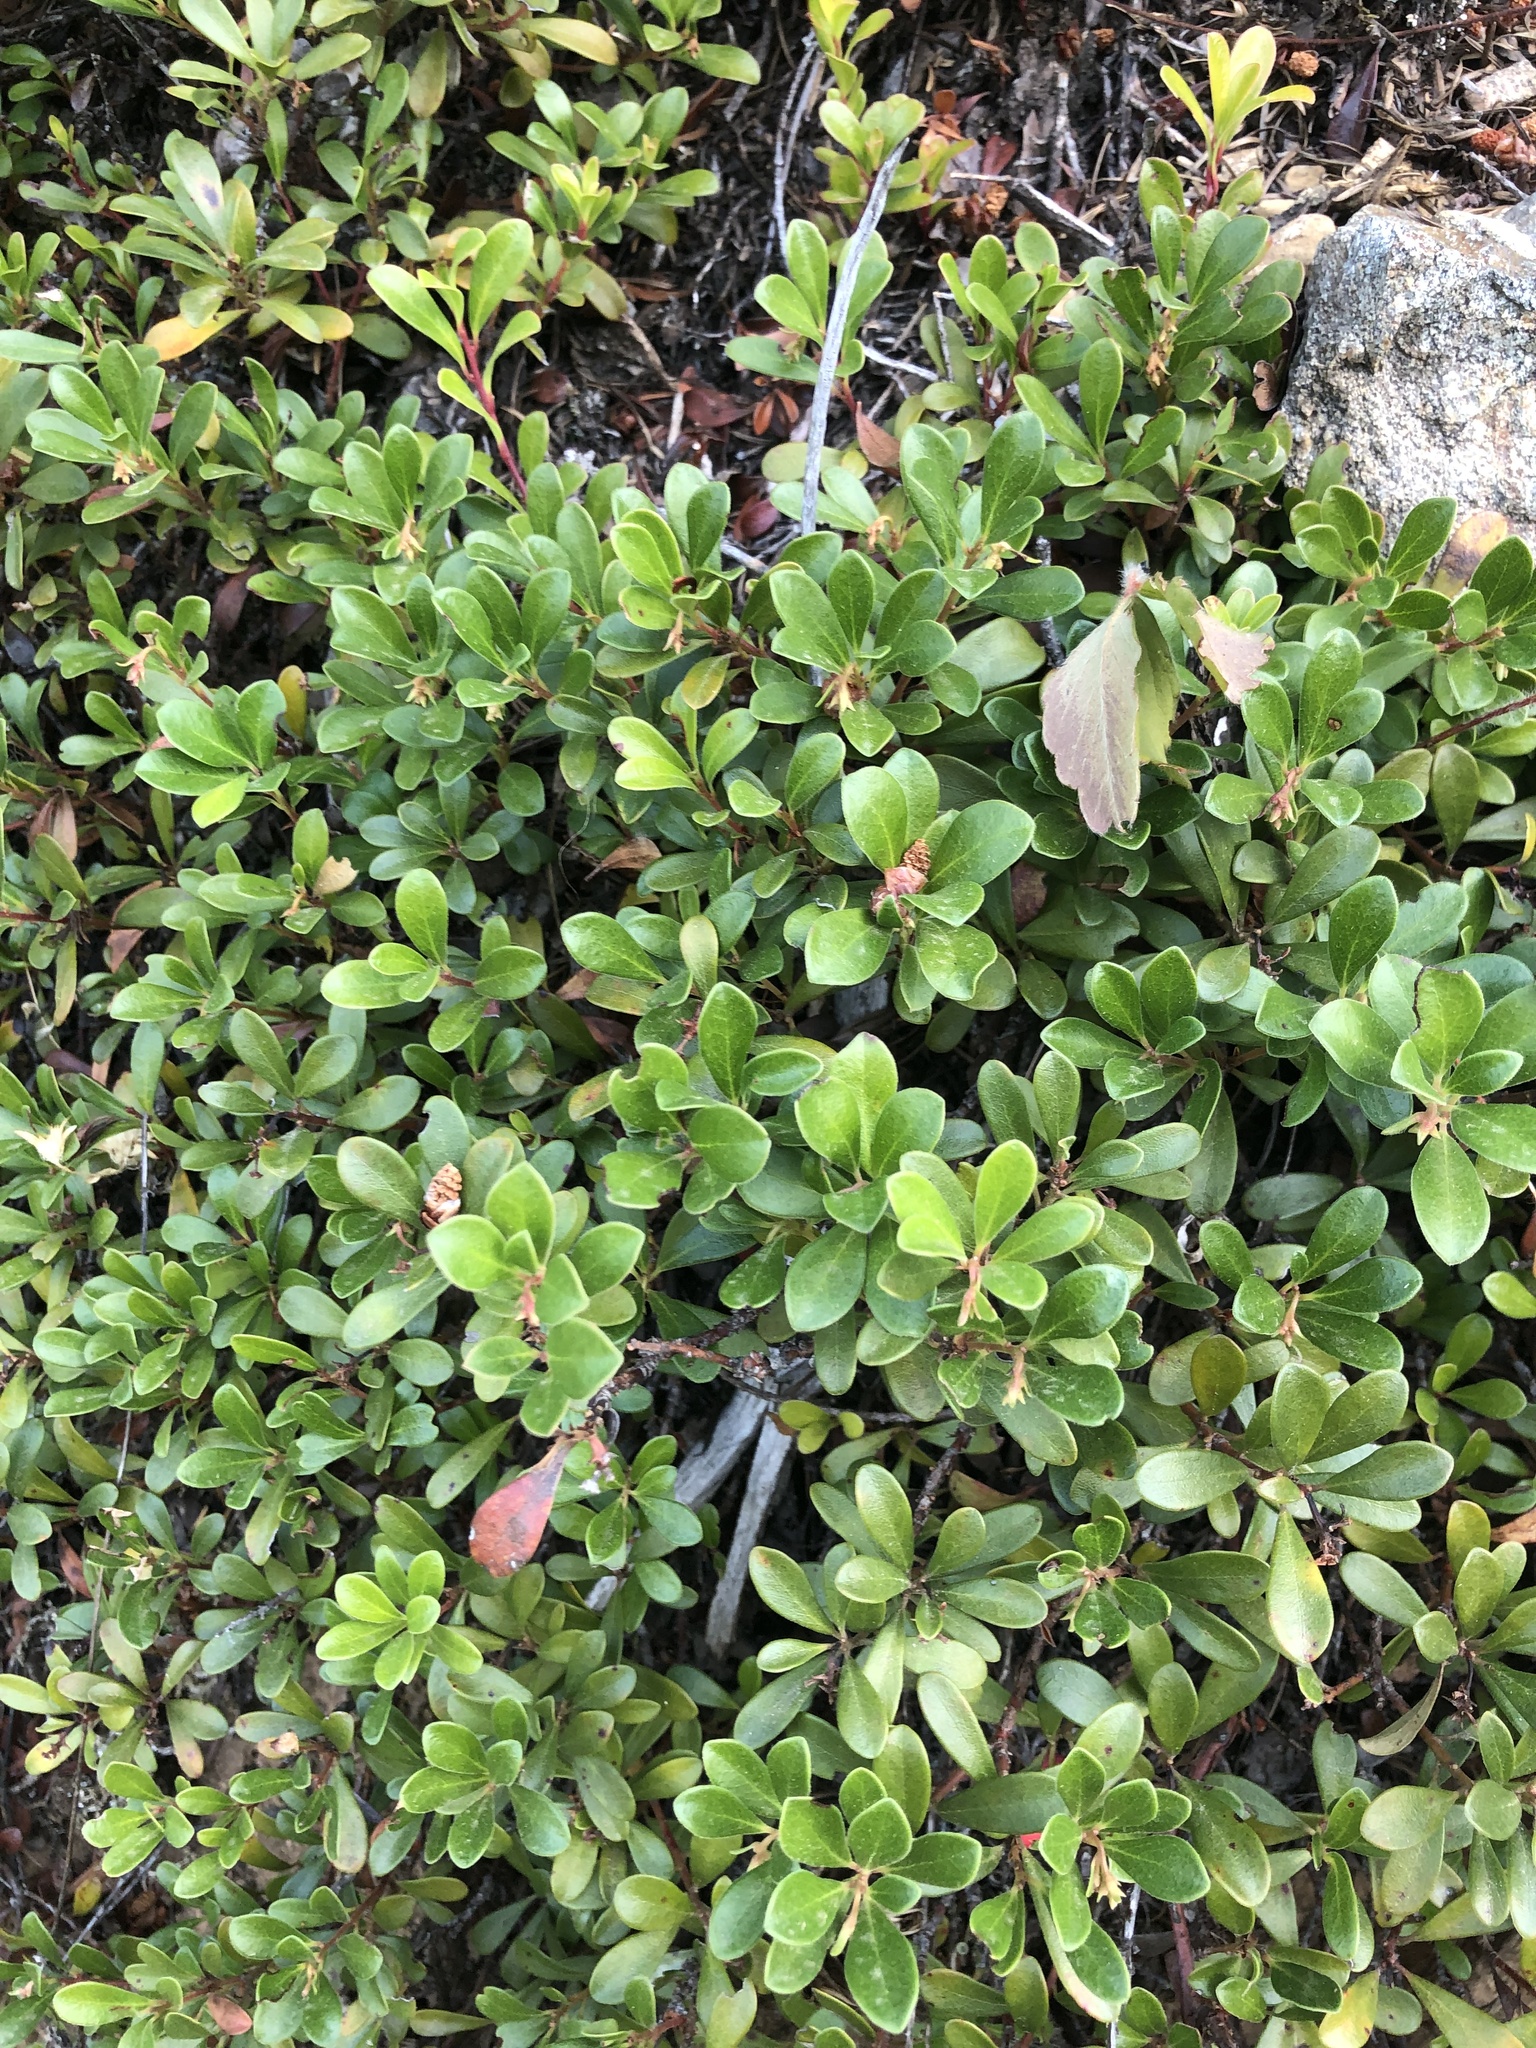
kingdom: Plantae
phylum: Tracheophyta
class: Magnoliopsida
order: Ericales
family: Ericaceae
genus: Arctostaphylos
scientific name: Arctostaphylos uva-ursi
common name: Bearberry
